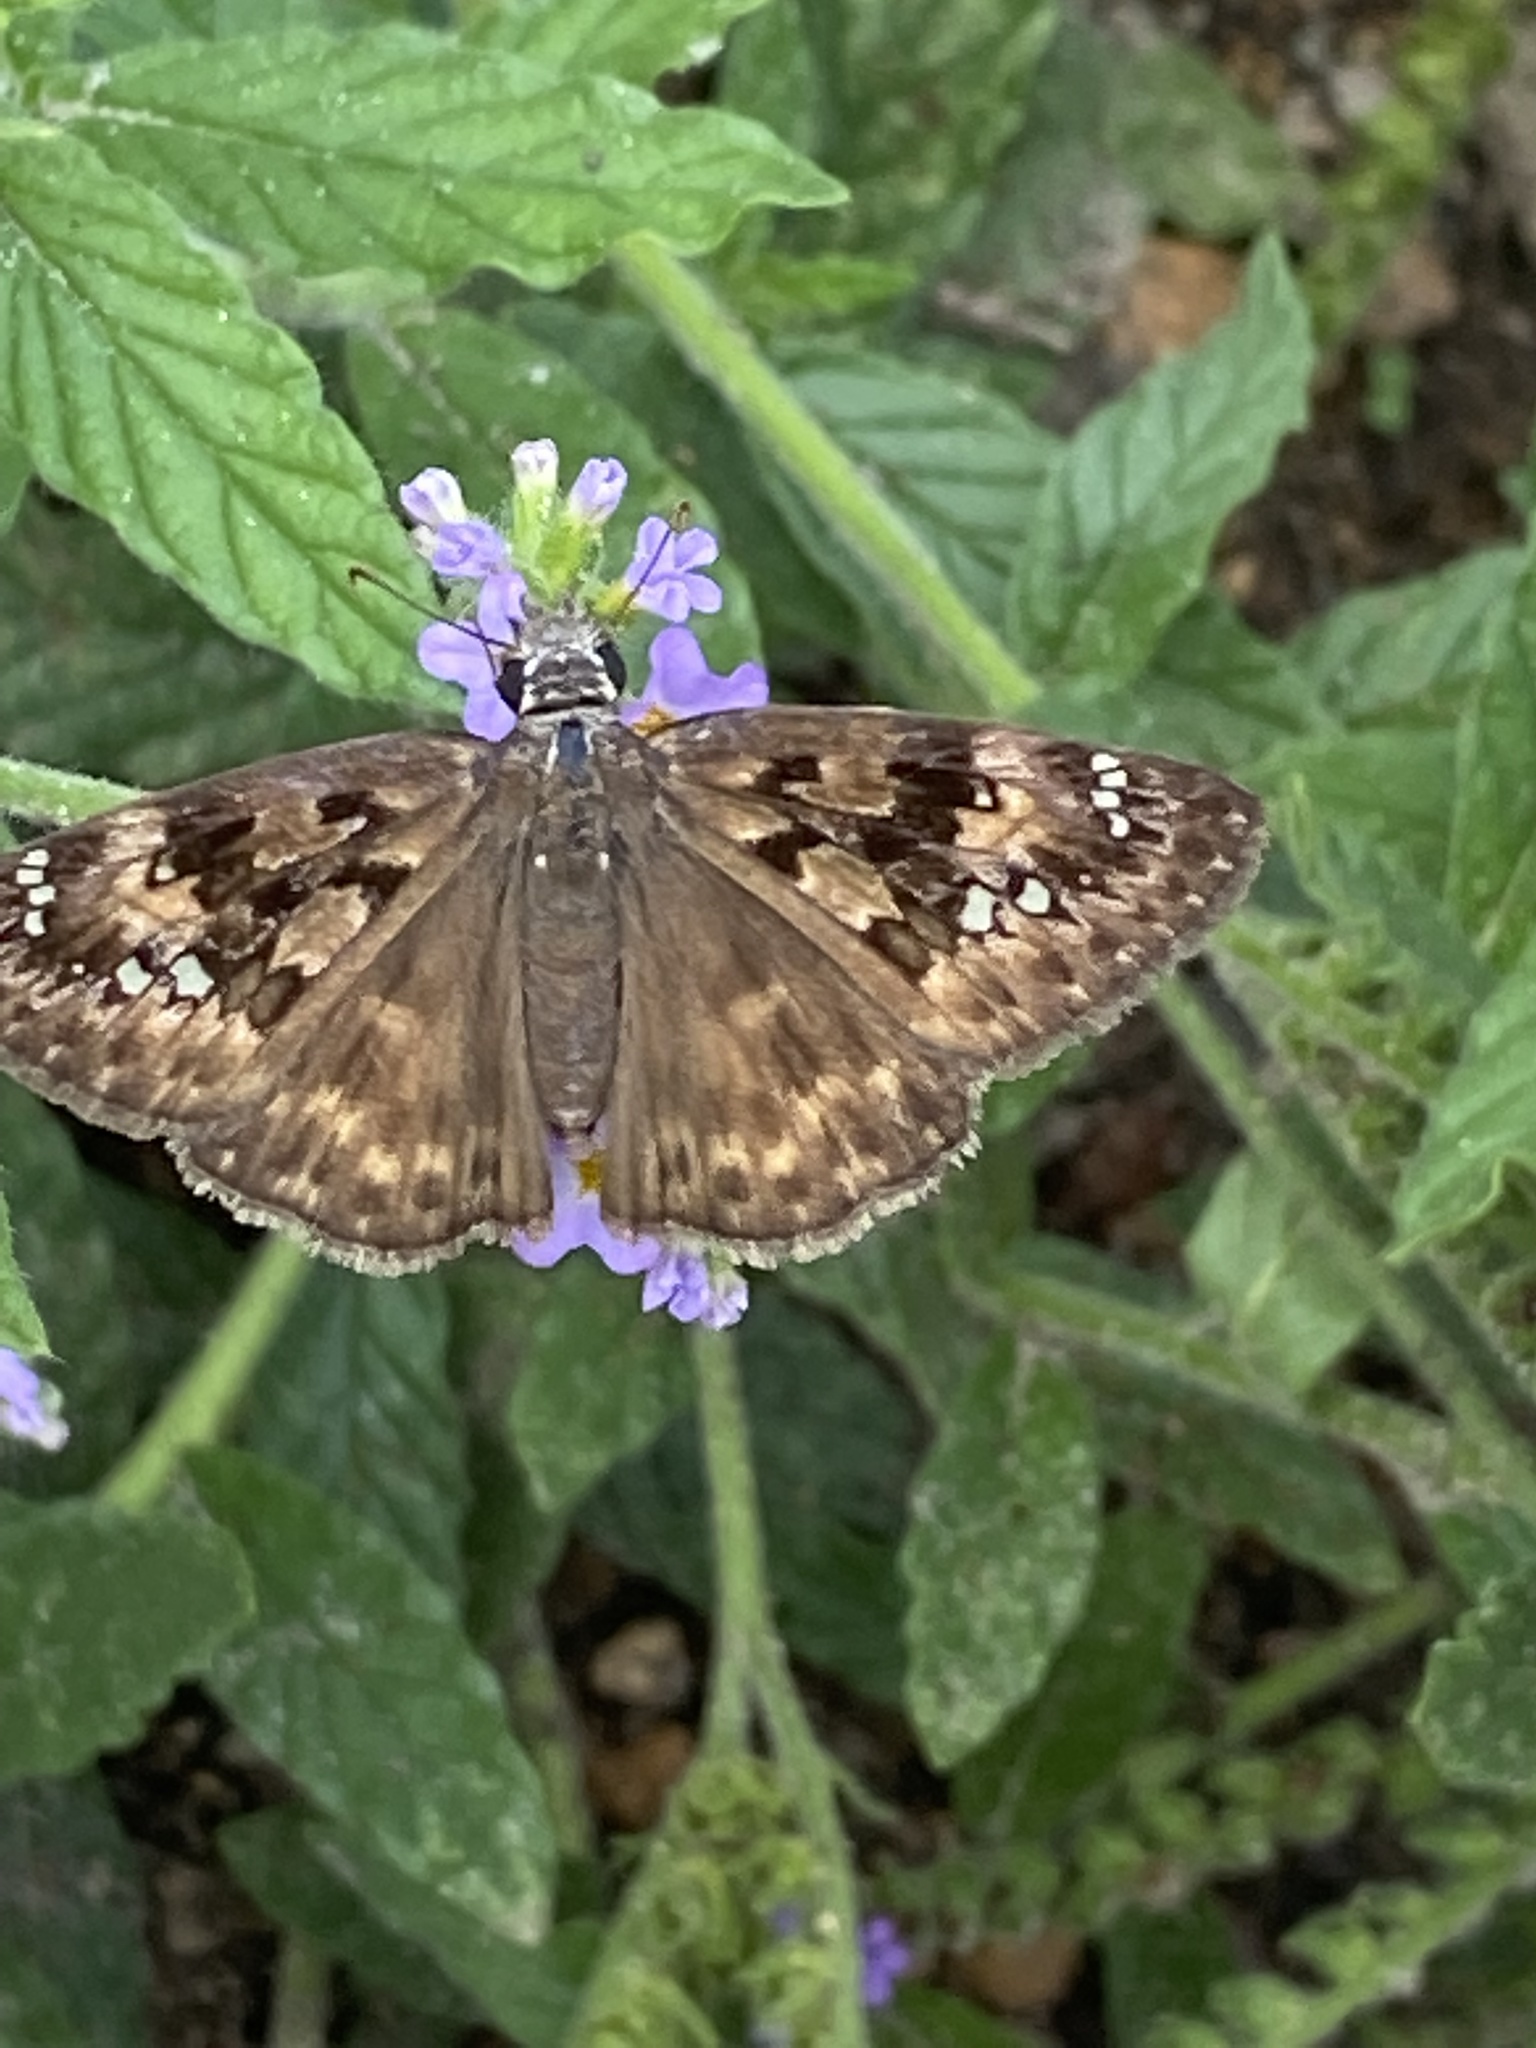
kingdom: Animalia
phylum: Arthropoda
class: Insecta
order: Lepidoptera
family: Hesperiidae
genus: Erynnis
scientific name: Erynnis horatius
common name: Horace's duskywing
